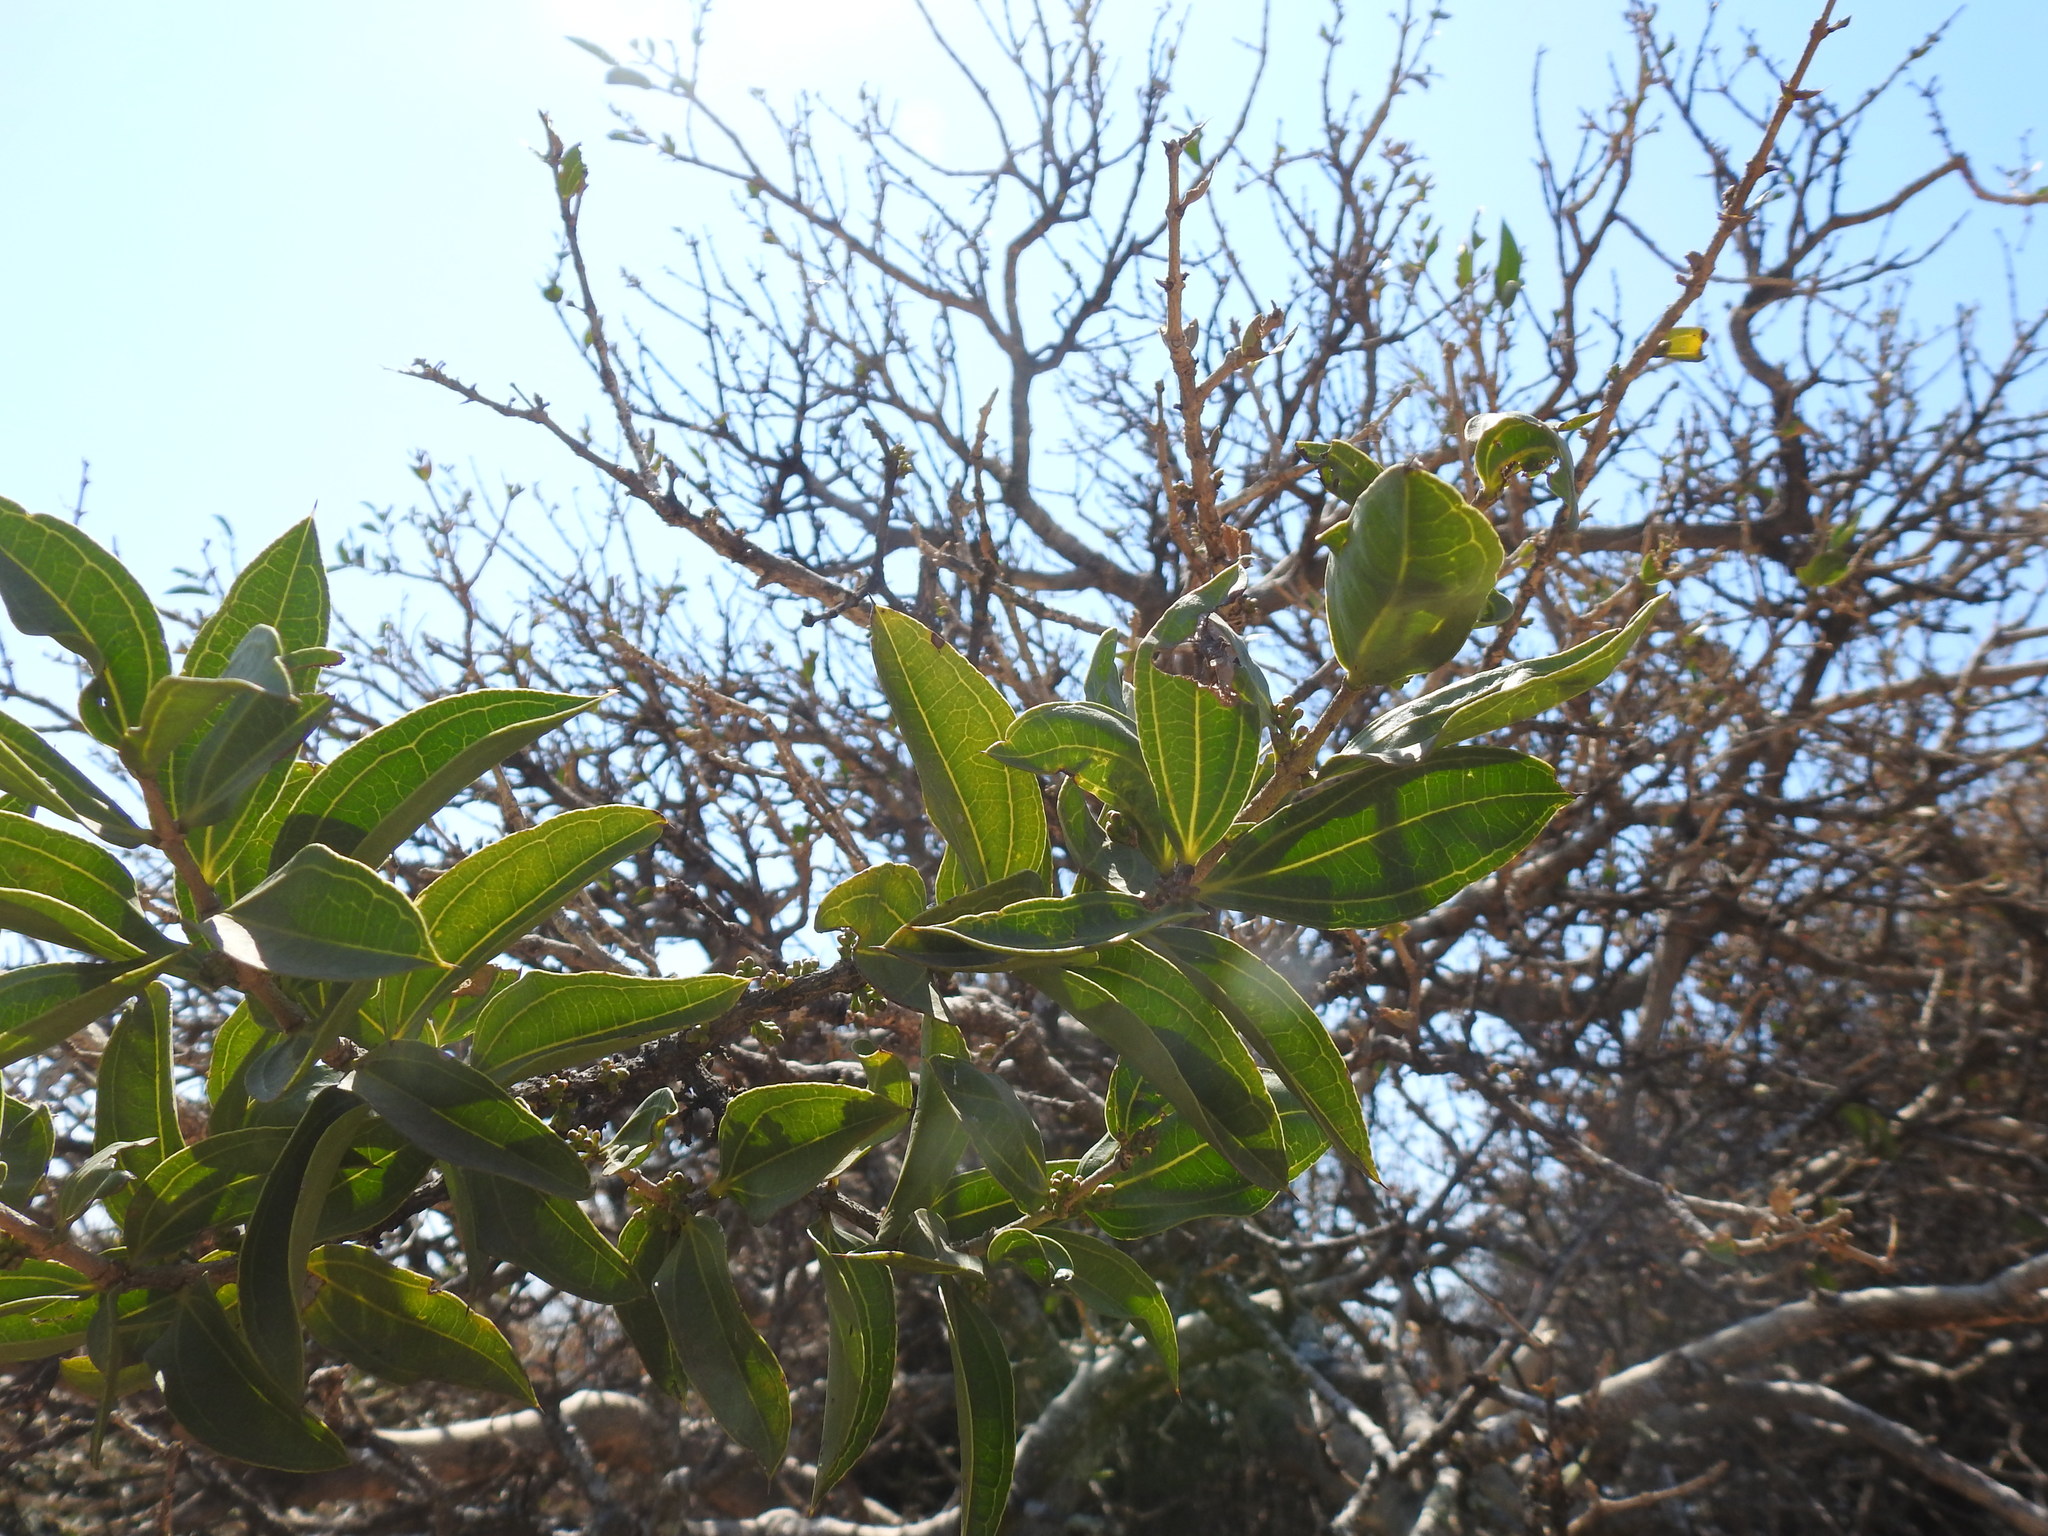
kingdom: Plantae
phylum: Tracheophyta
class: Magnoliopsida
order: Gentianales
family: Loganiaceae
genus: Strychnos
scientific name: Strychnos pungens
